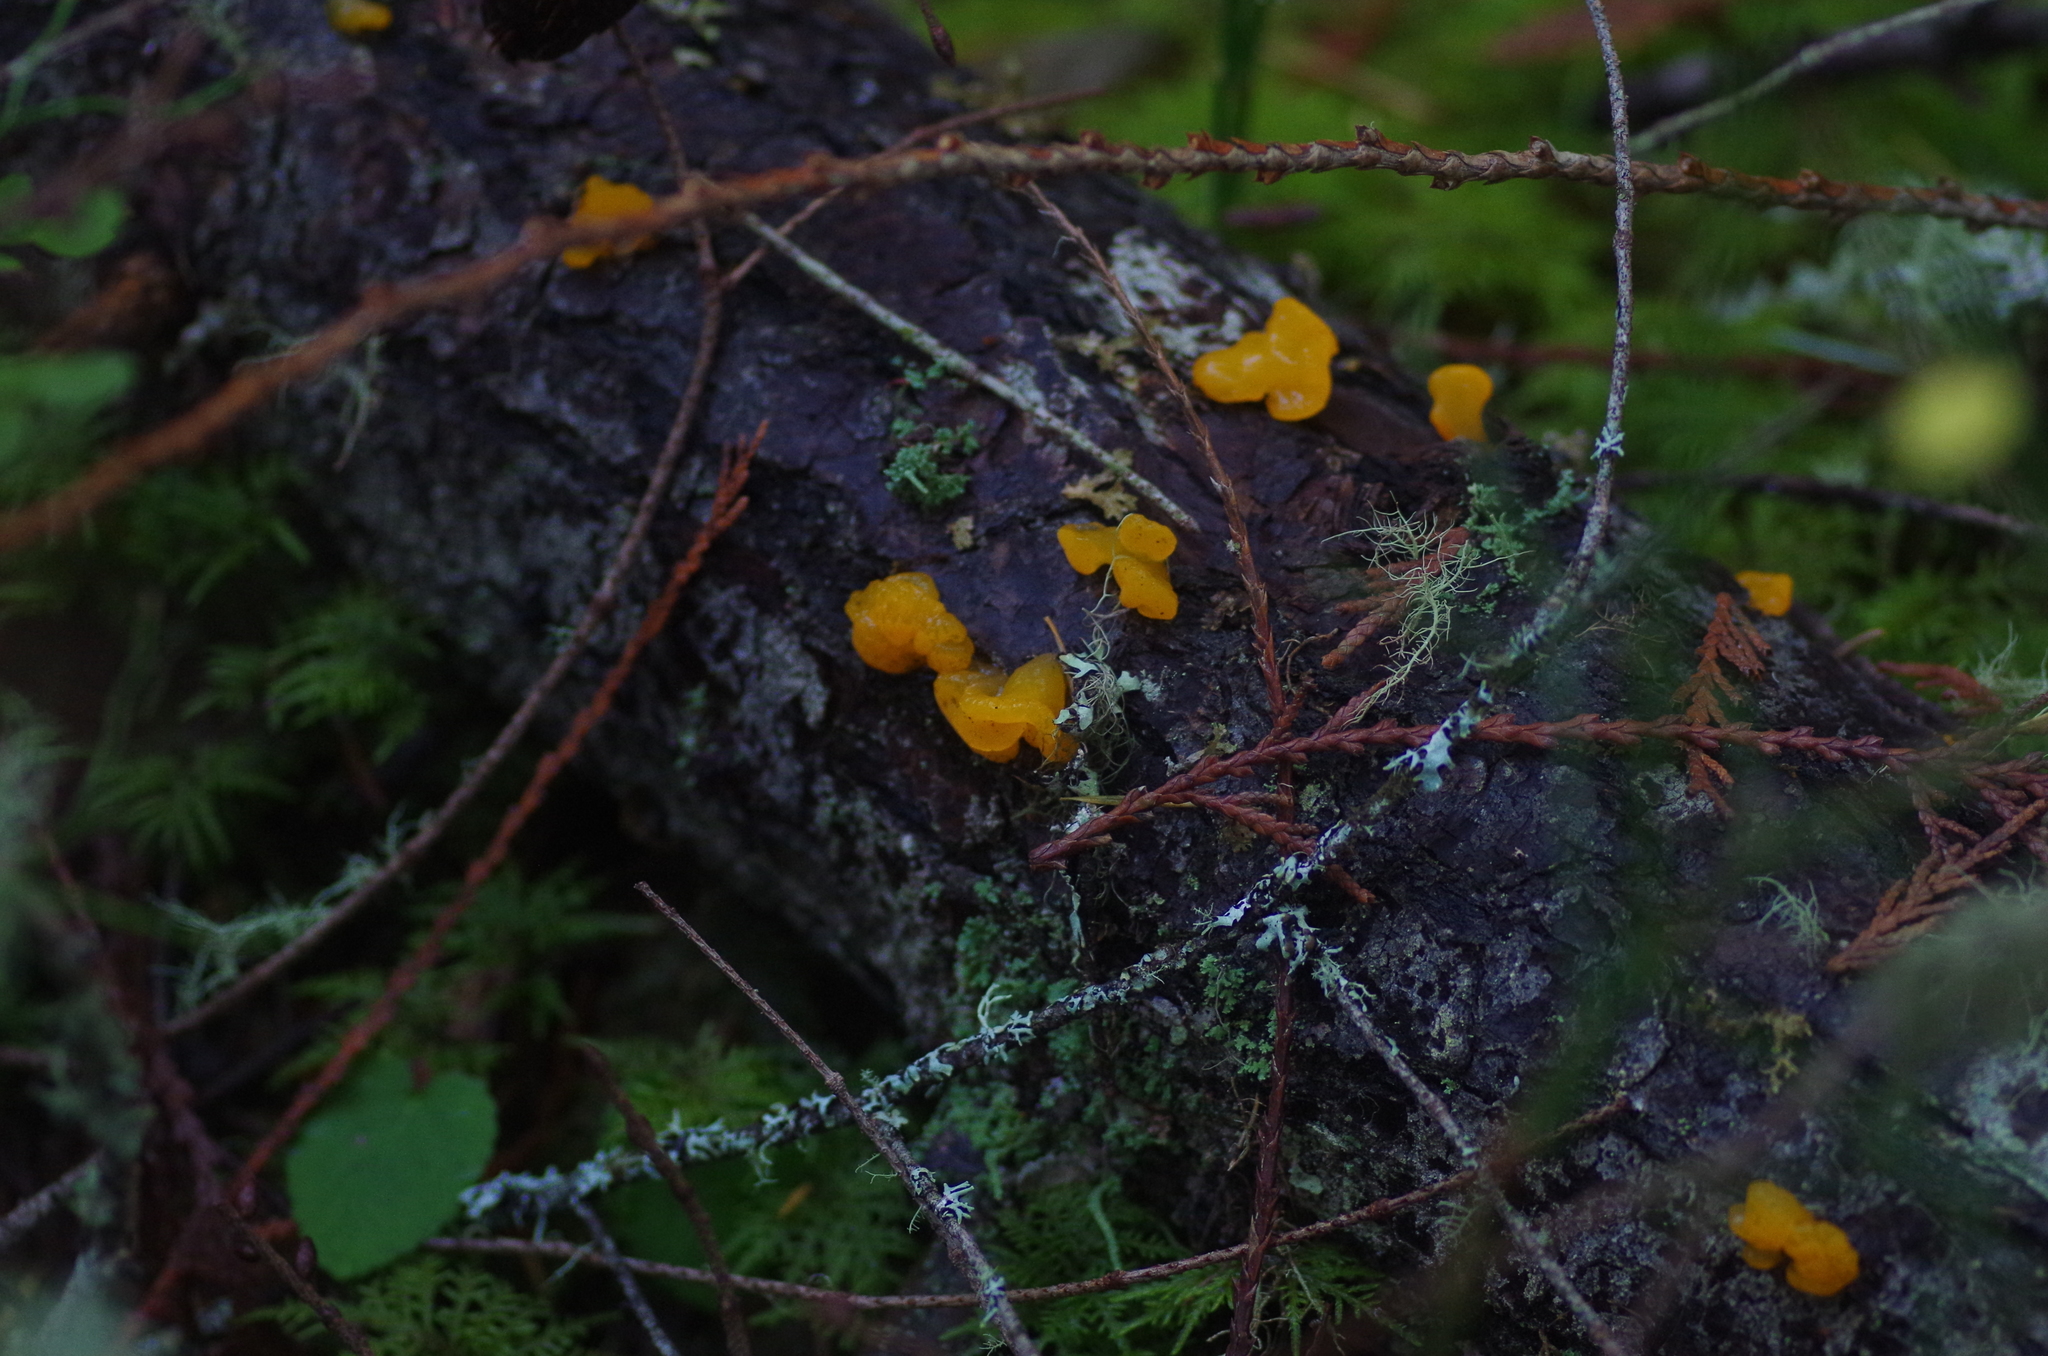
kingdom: Fungi
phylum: Basidiomycota
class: Dacrymycetes
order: Dacrymycetales
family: Dacrymycetaceae
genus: Dacrymyces
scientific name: Dacrymyces chrysospermus
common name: Orange jelly spot
